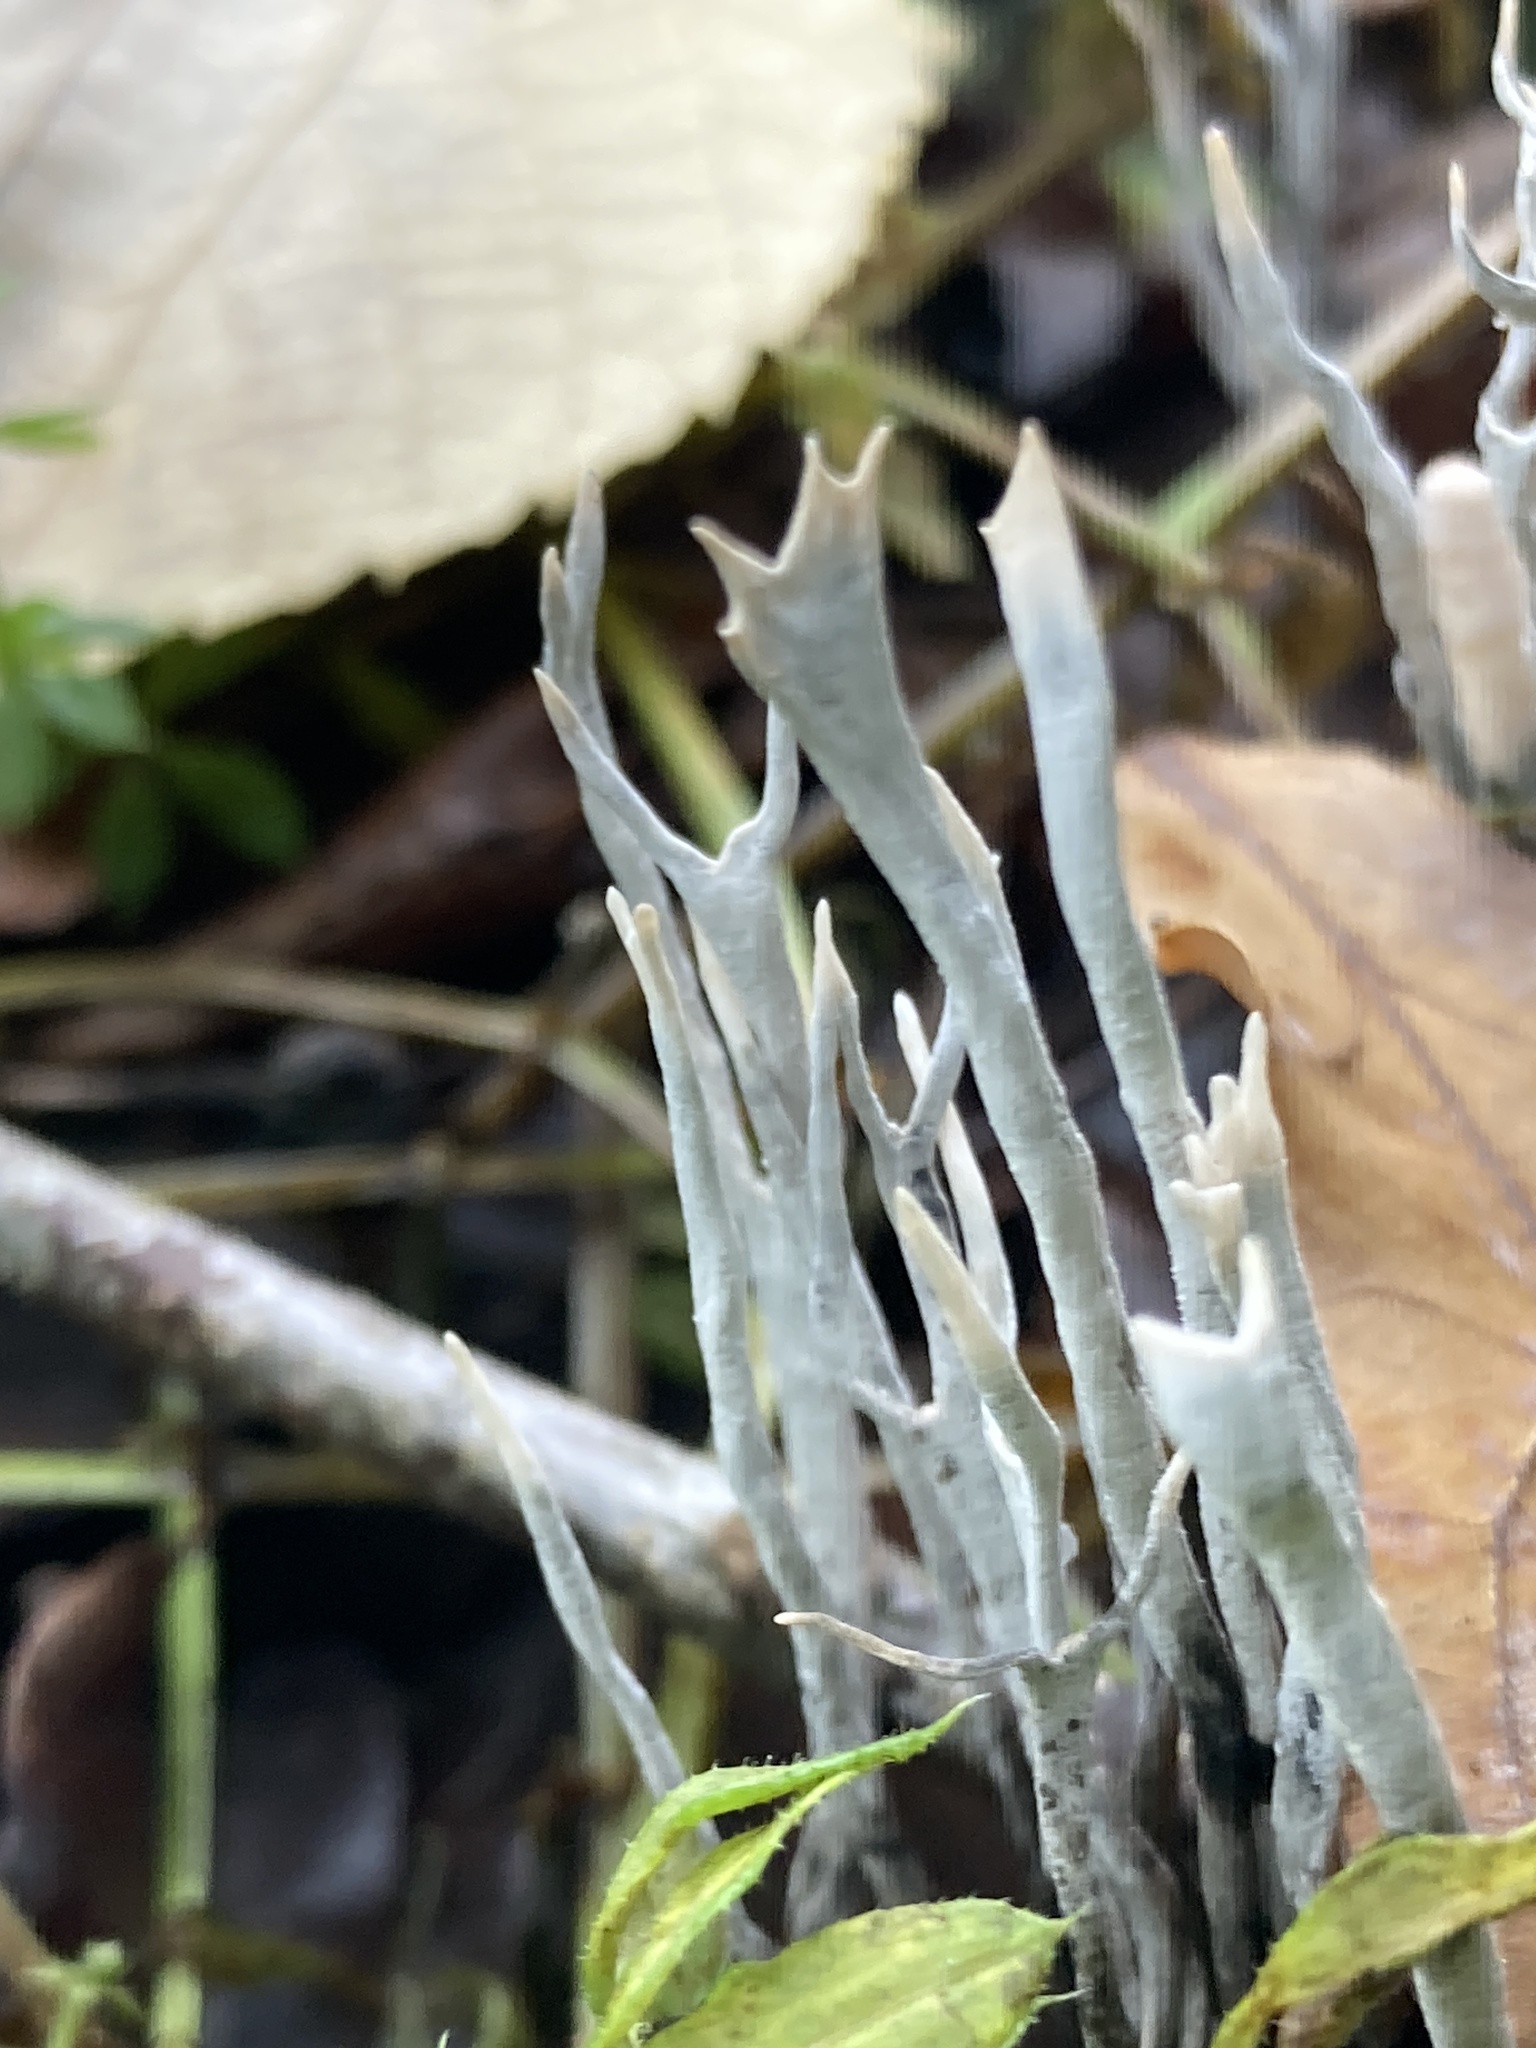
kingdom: Fungi
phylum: Ascomycota
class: Sordariomycetes
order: Xylariales
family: Xylariaceae
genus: Xylaria
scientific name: Xylaria hypoxylon
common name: Candle-snuff fungus
